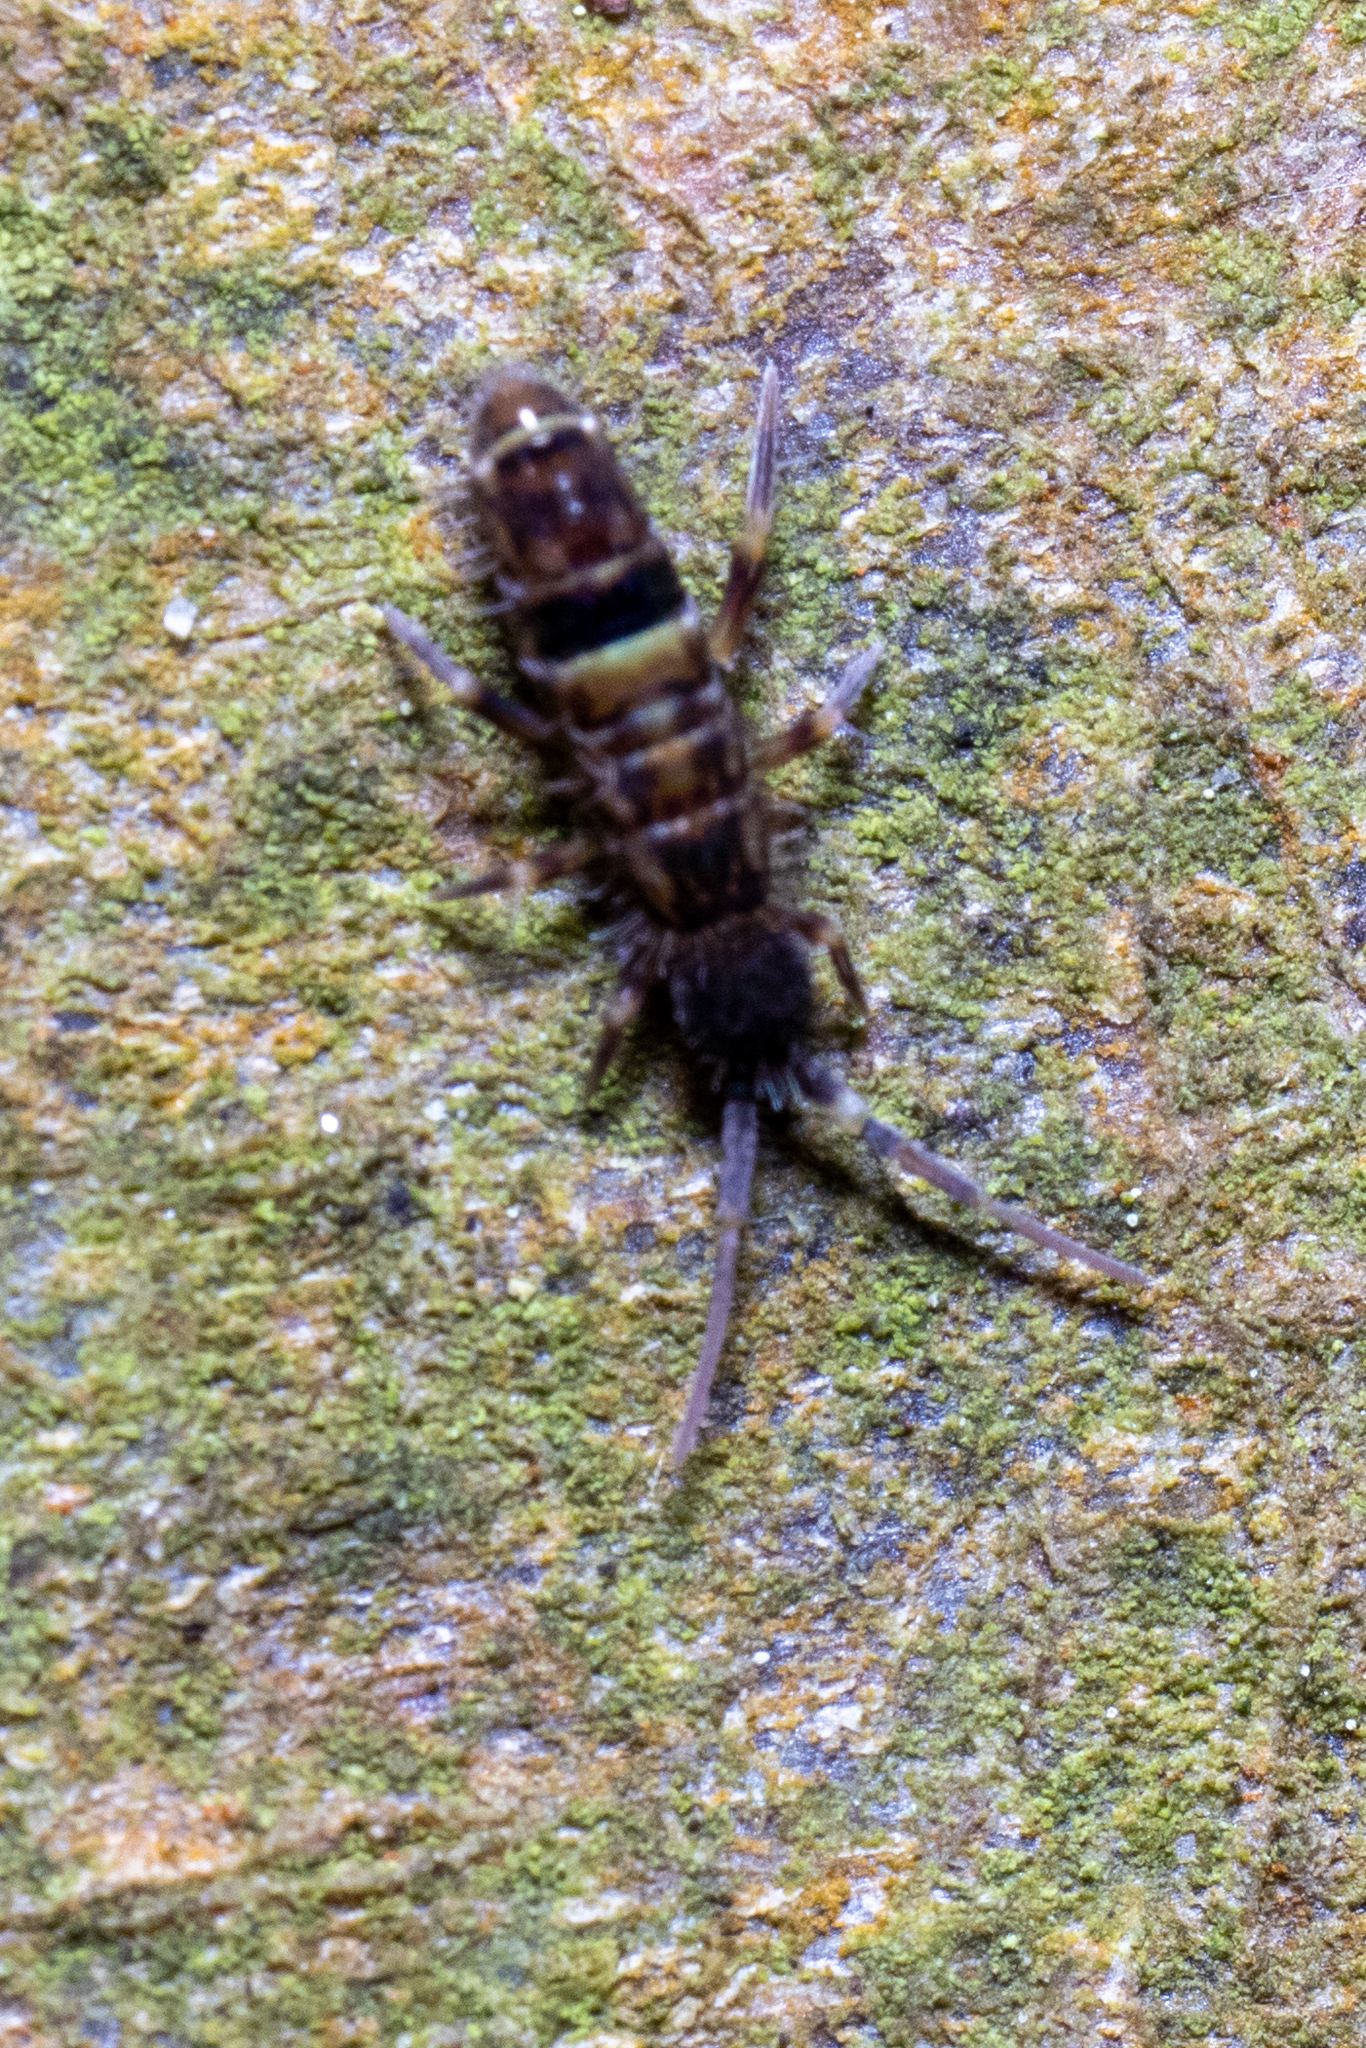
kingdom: Animalia
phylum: Arthropoda
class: Collembola
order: Entomobryomorpha
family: Orchesellidae
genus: Orchesella
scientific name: Orchesella cincta
